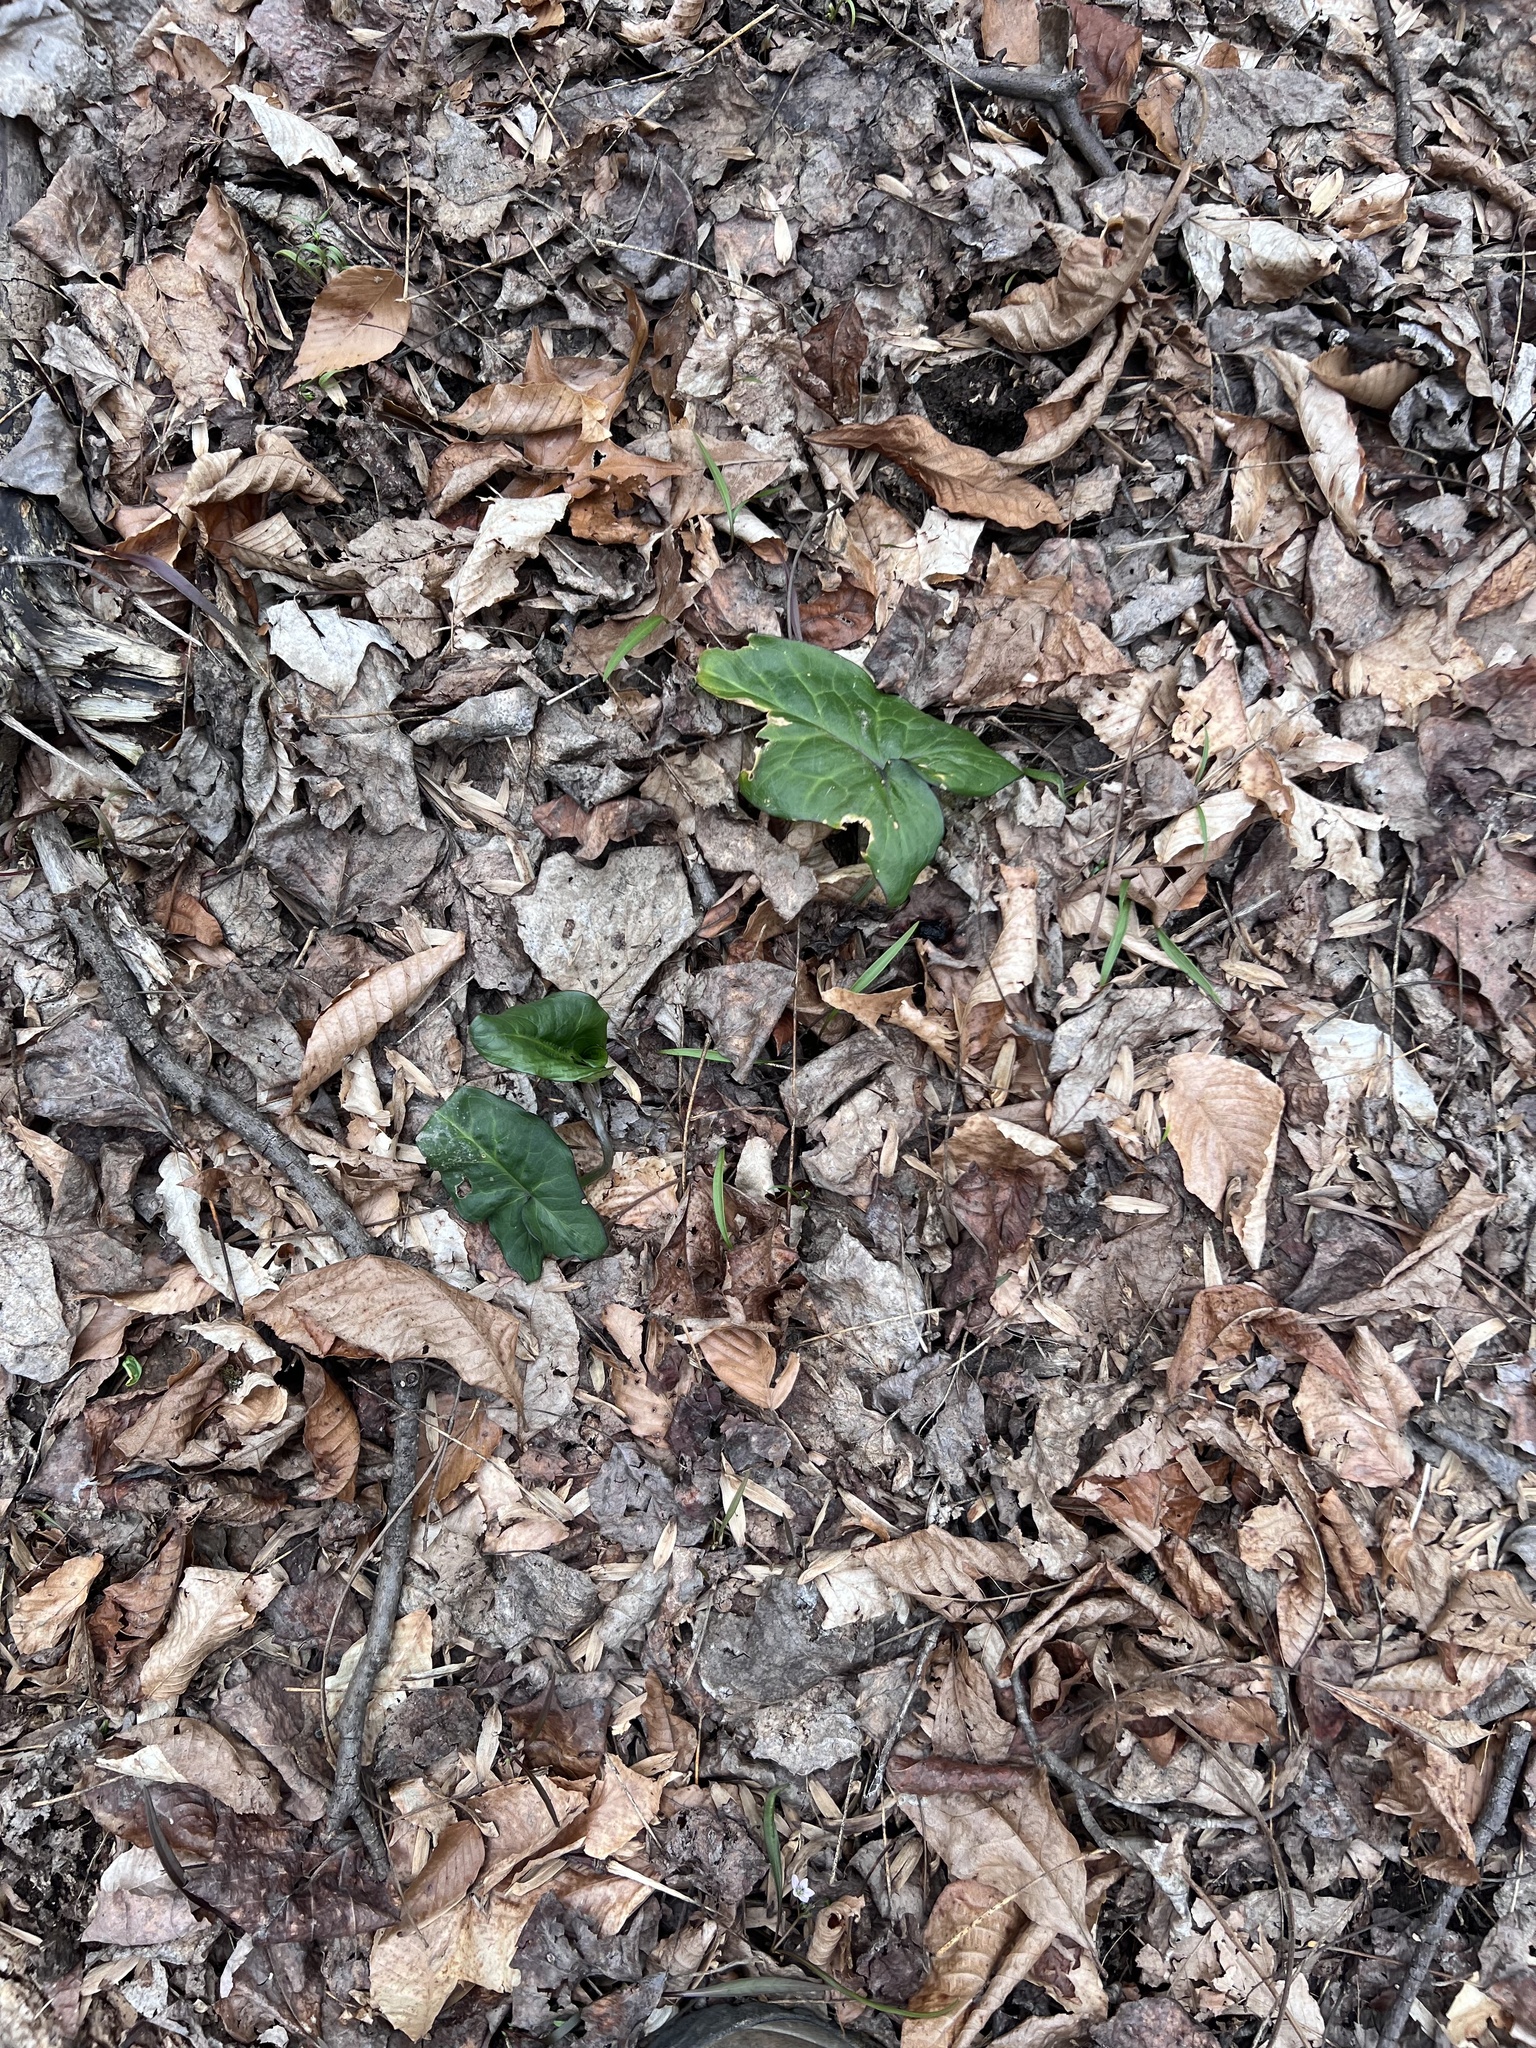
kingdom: Plantae
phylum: Tracheophyta
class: Liliopsida
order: Alismatales
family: Araceae
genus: Arum
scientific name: Arum italicum
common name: Italian lords-and-ladies
